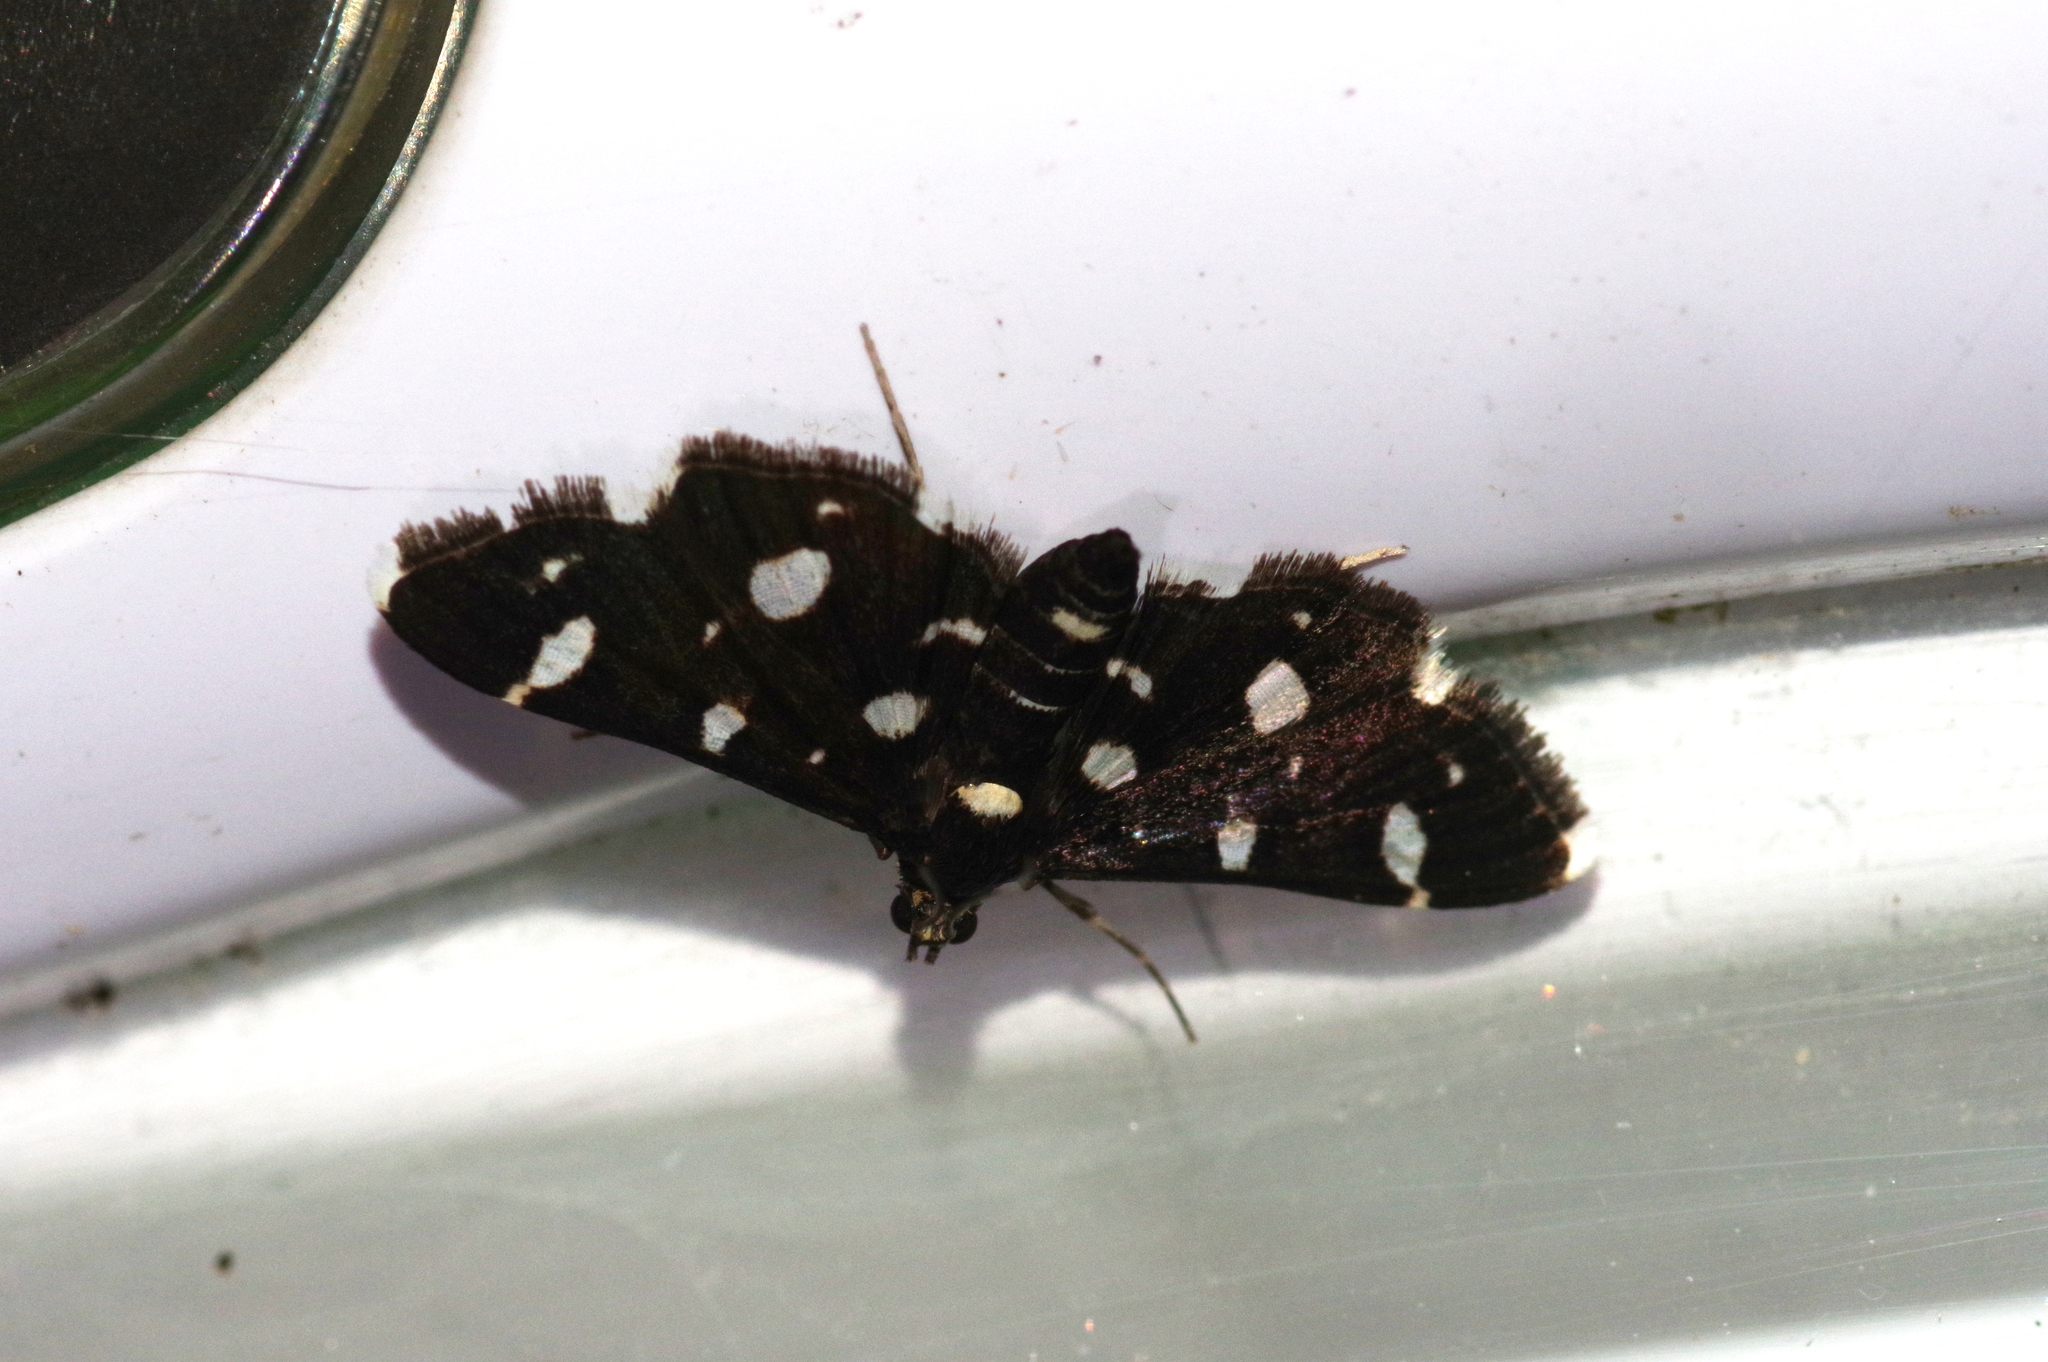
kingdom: Animalia
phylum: Arthropoda
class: Insecta
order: Lepidoptera
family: Crambidae
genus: Bocchoris
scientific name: Bocchoris inspersalis
